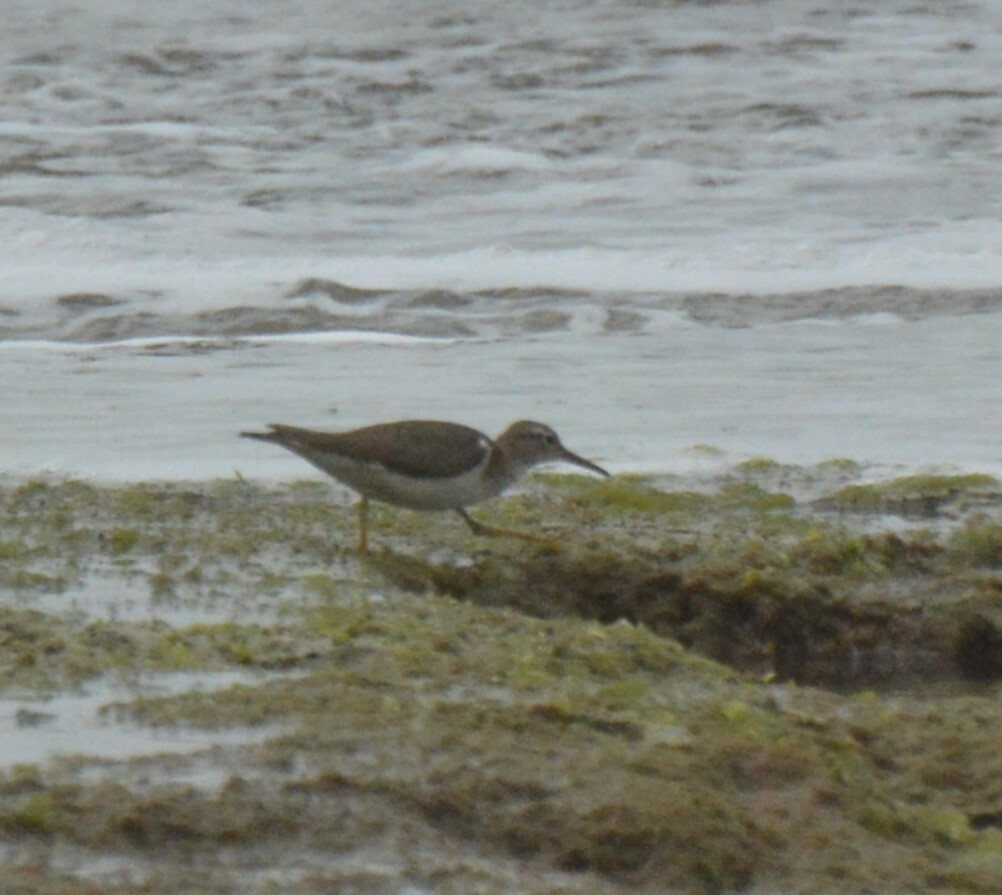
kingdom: Animalia
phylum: Chordata
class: Aves
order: Charadriiformes
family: Scolopacidae
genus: Actitis
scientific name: Actitis macularius
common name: Spotted sandpiper
